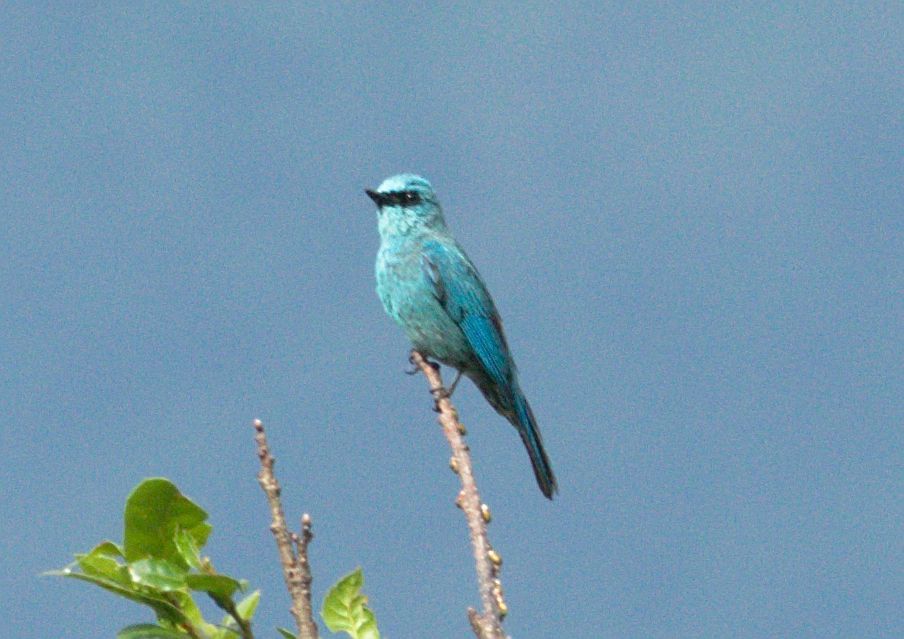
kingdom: Animalia
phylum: Chordata
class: Aves
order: Passeriformes
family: Muscicapidae
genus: Eumyias
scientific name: Eumyias thalassinus
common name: Verditer flycatcher
